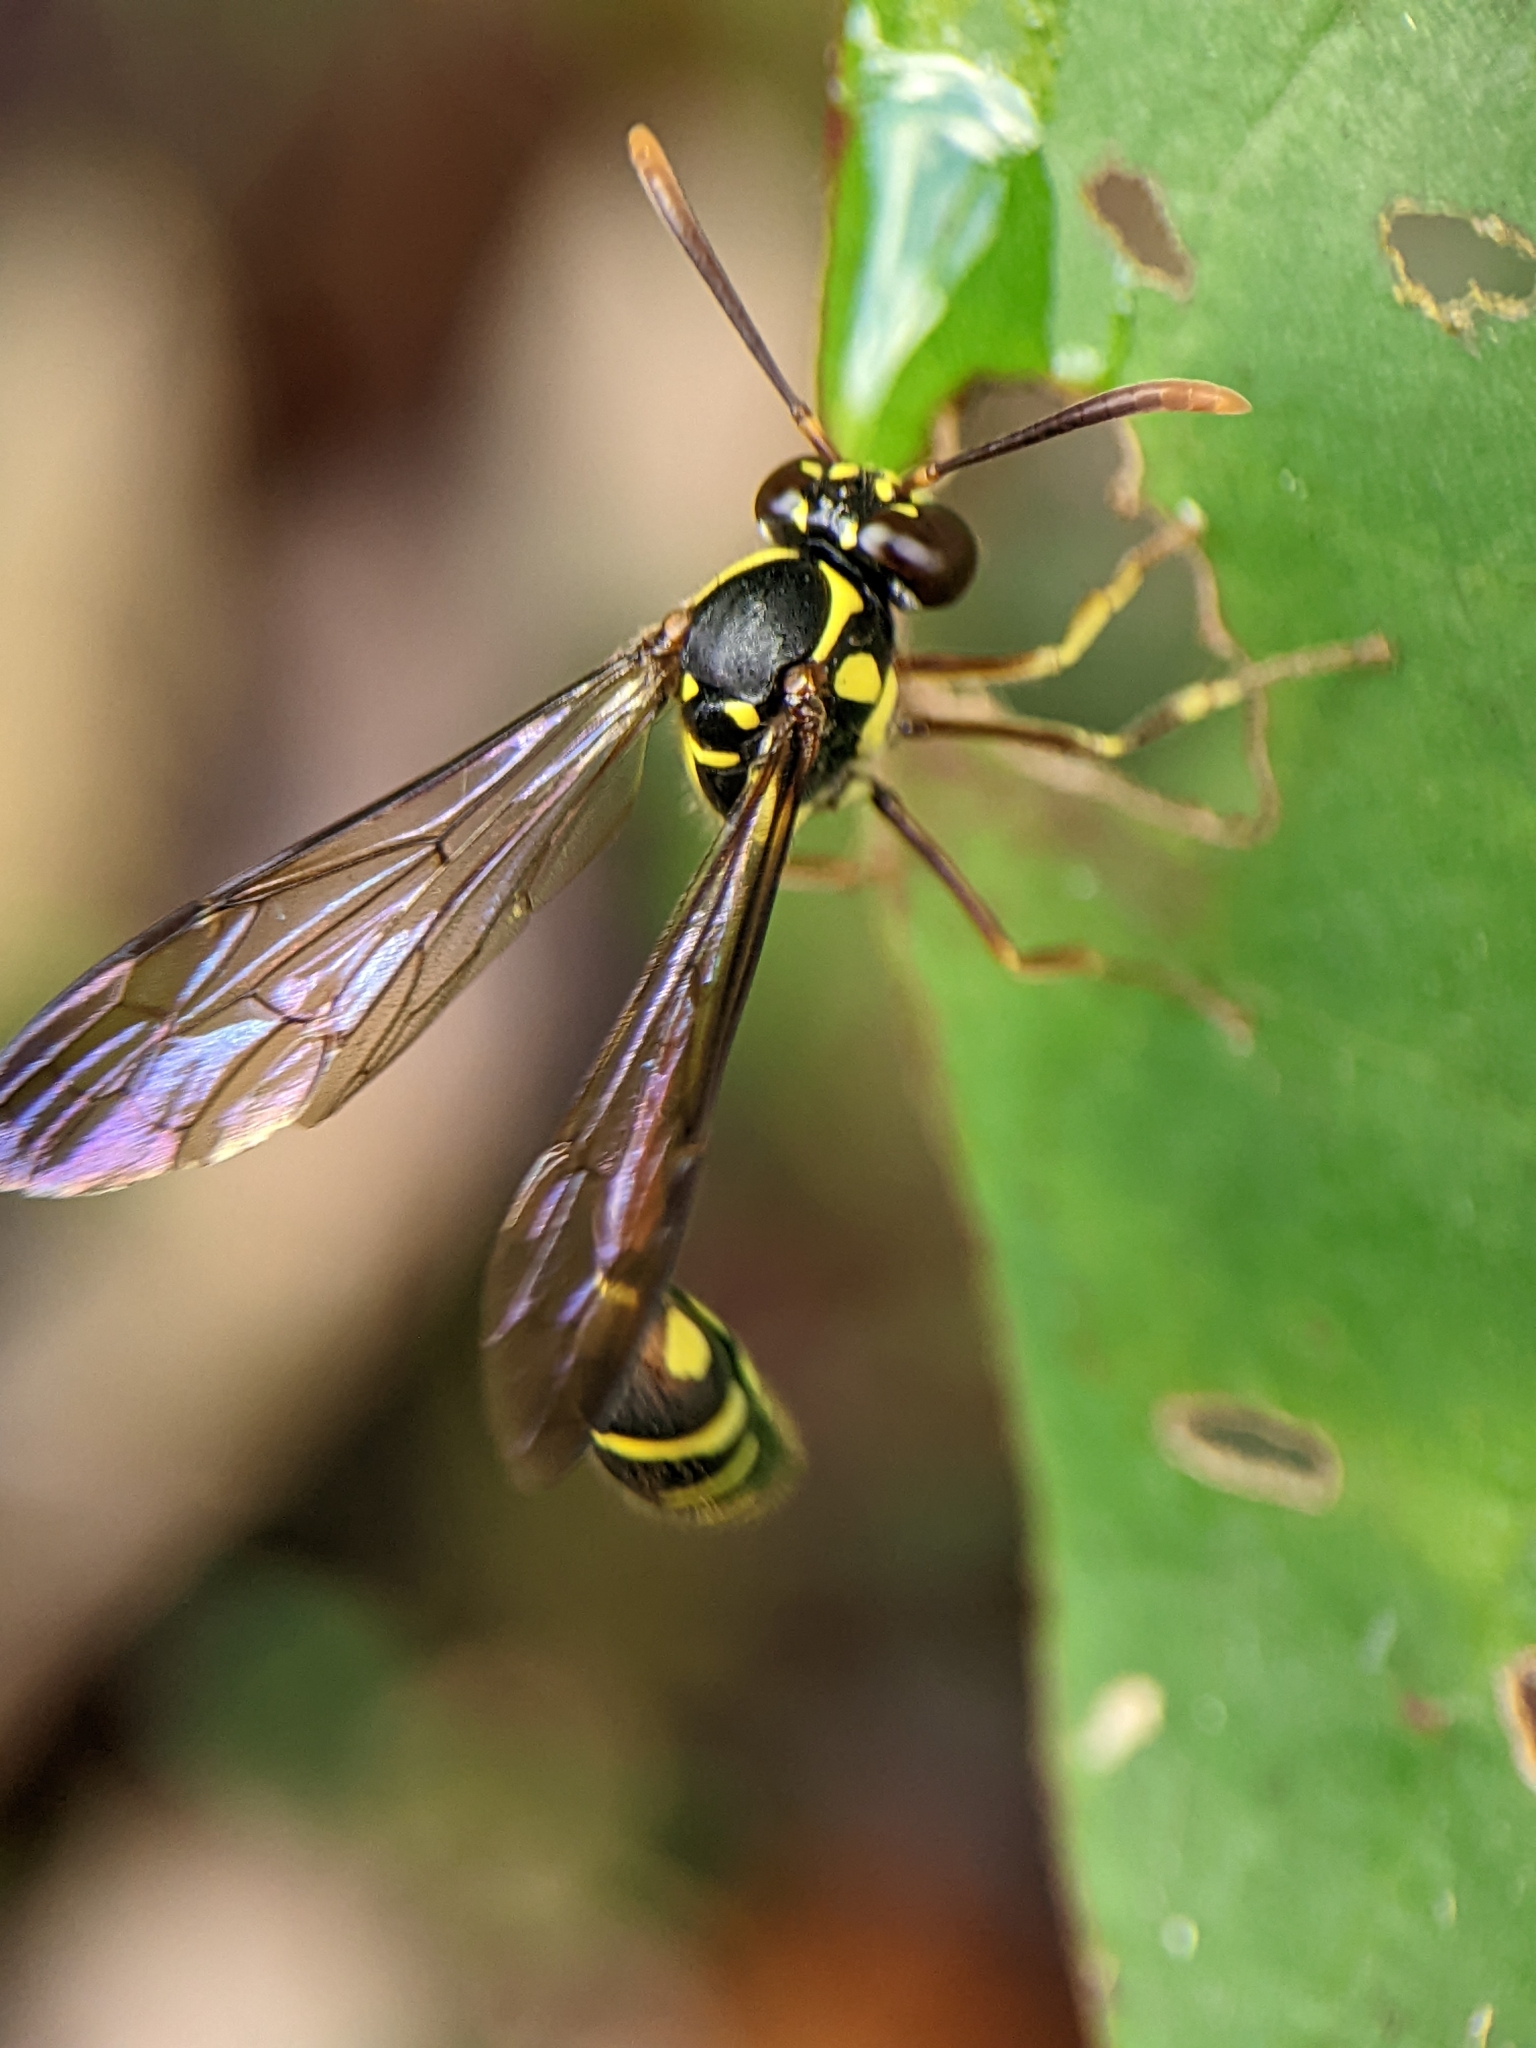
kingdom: Animalia
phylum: Arthropoda
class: Insecta
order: Hymenoptera
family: Vespidae
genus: Eustenogaster
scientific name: Eustenogaster micans
